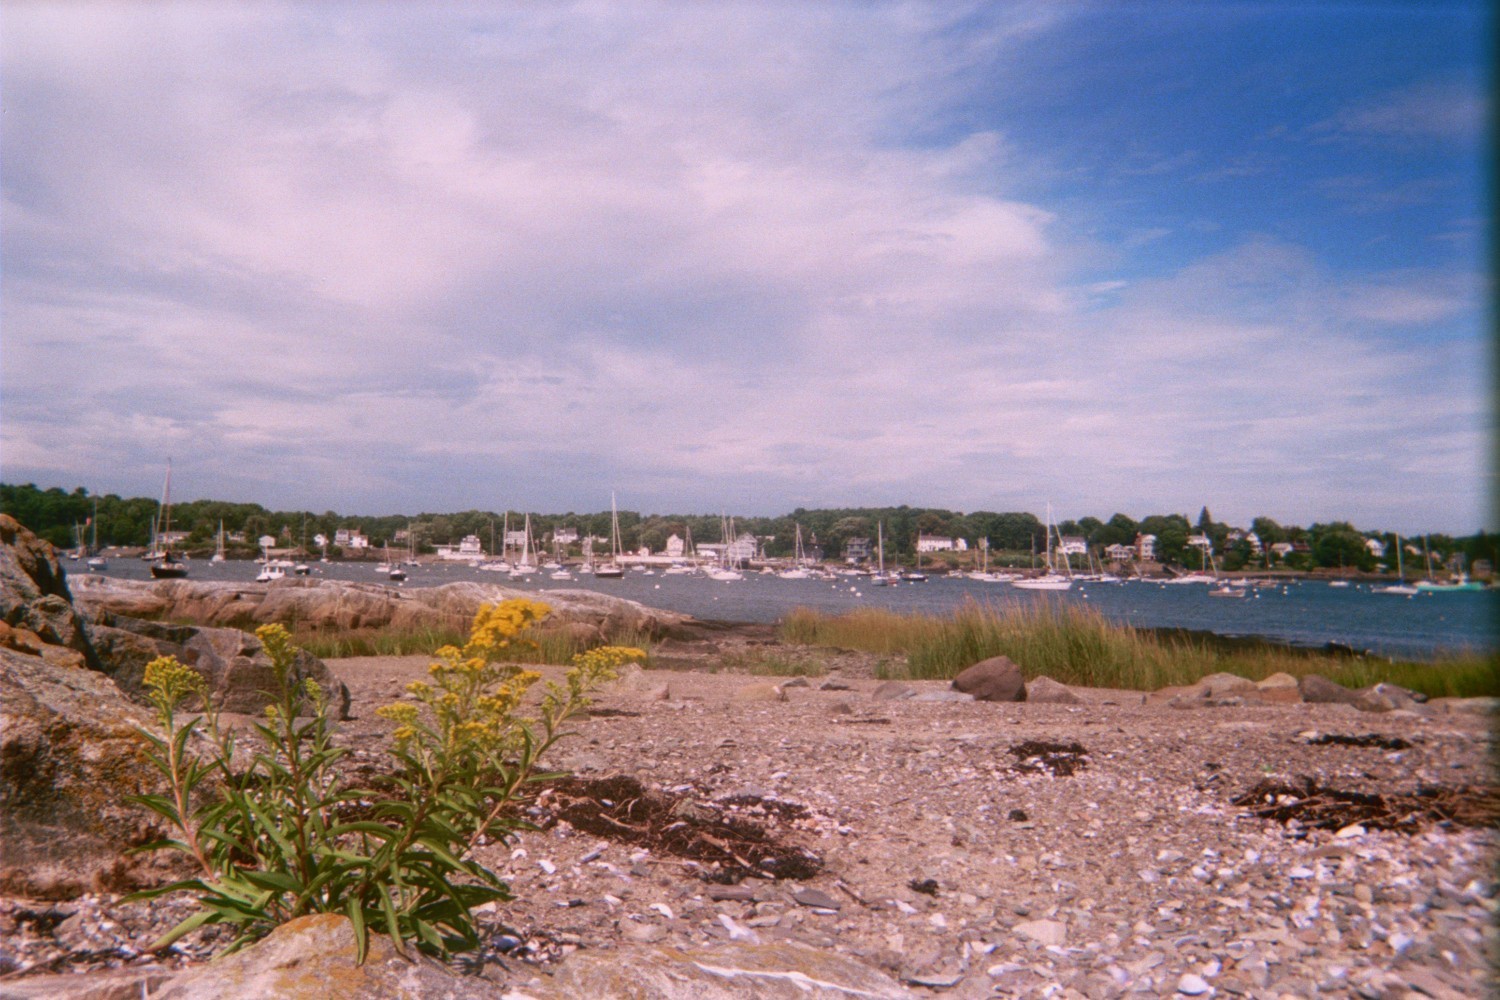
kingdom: Plantae
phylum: Tracheophyta
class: Magnoliopsida
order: Asterales
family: Asteraceae
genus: Solidago
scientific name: Solidago sempervirens
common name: Salt-marsh goldenrod
